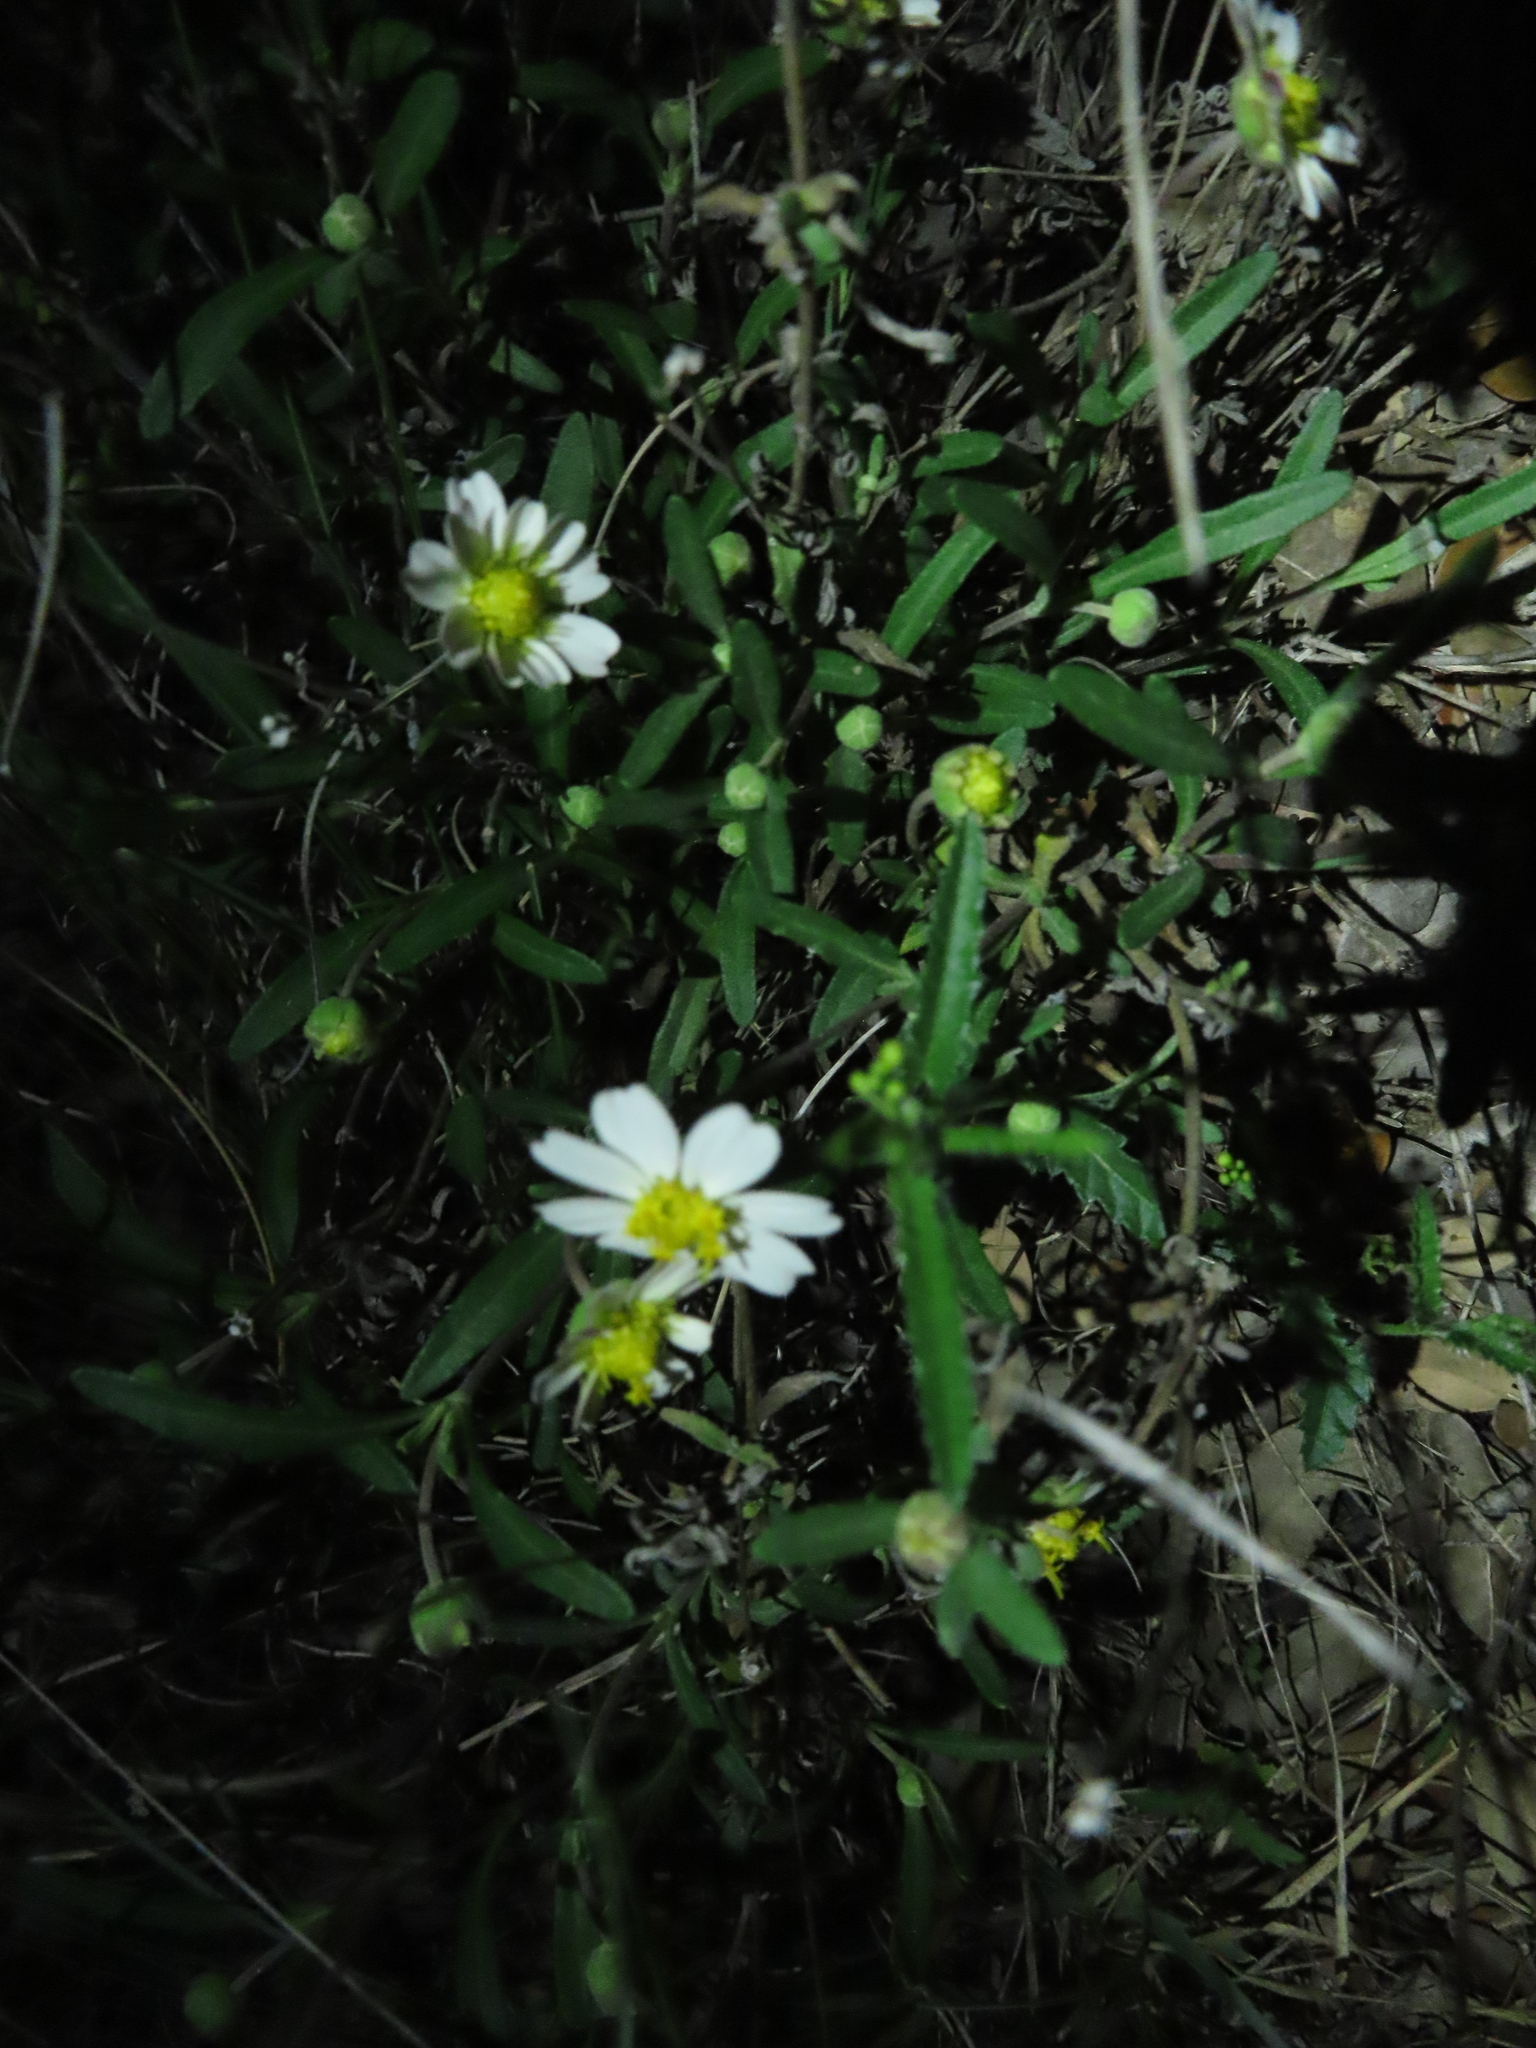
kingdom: Plantae
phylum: Tracheophyta
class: Magnoliopsida
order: Asterales
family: Asteraceae
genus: Melampodium
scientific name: Melampodium leucanthum
